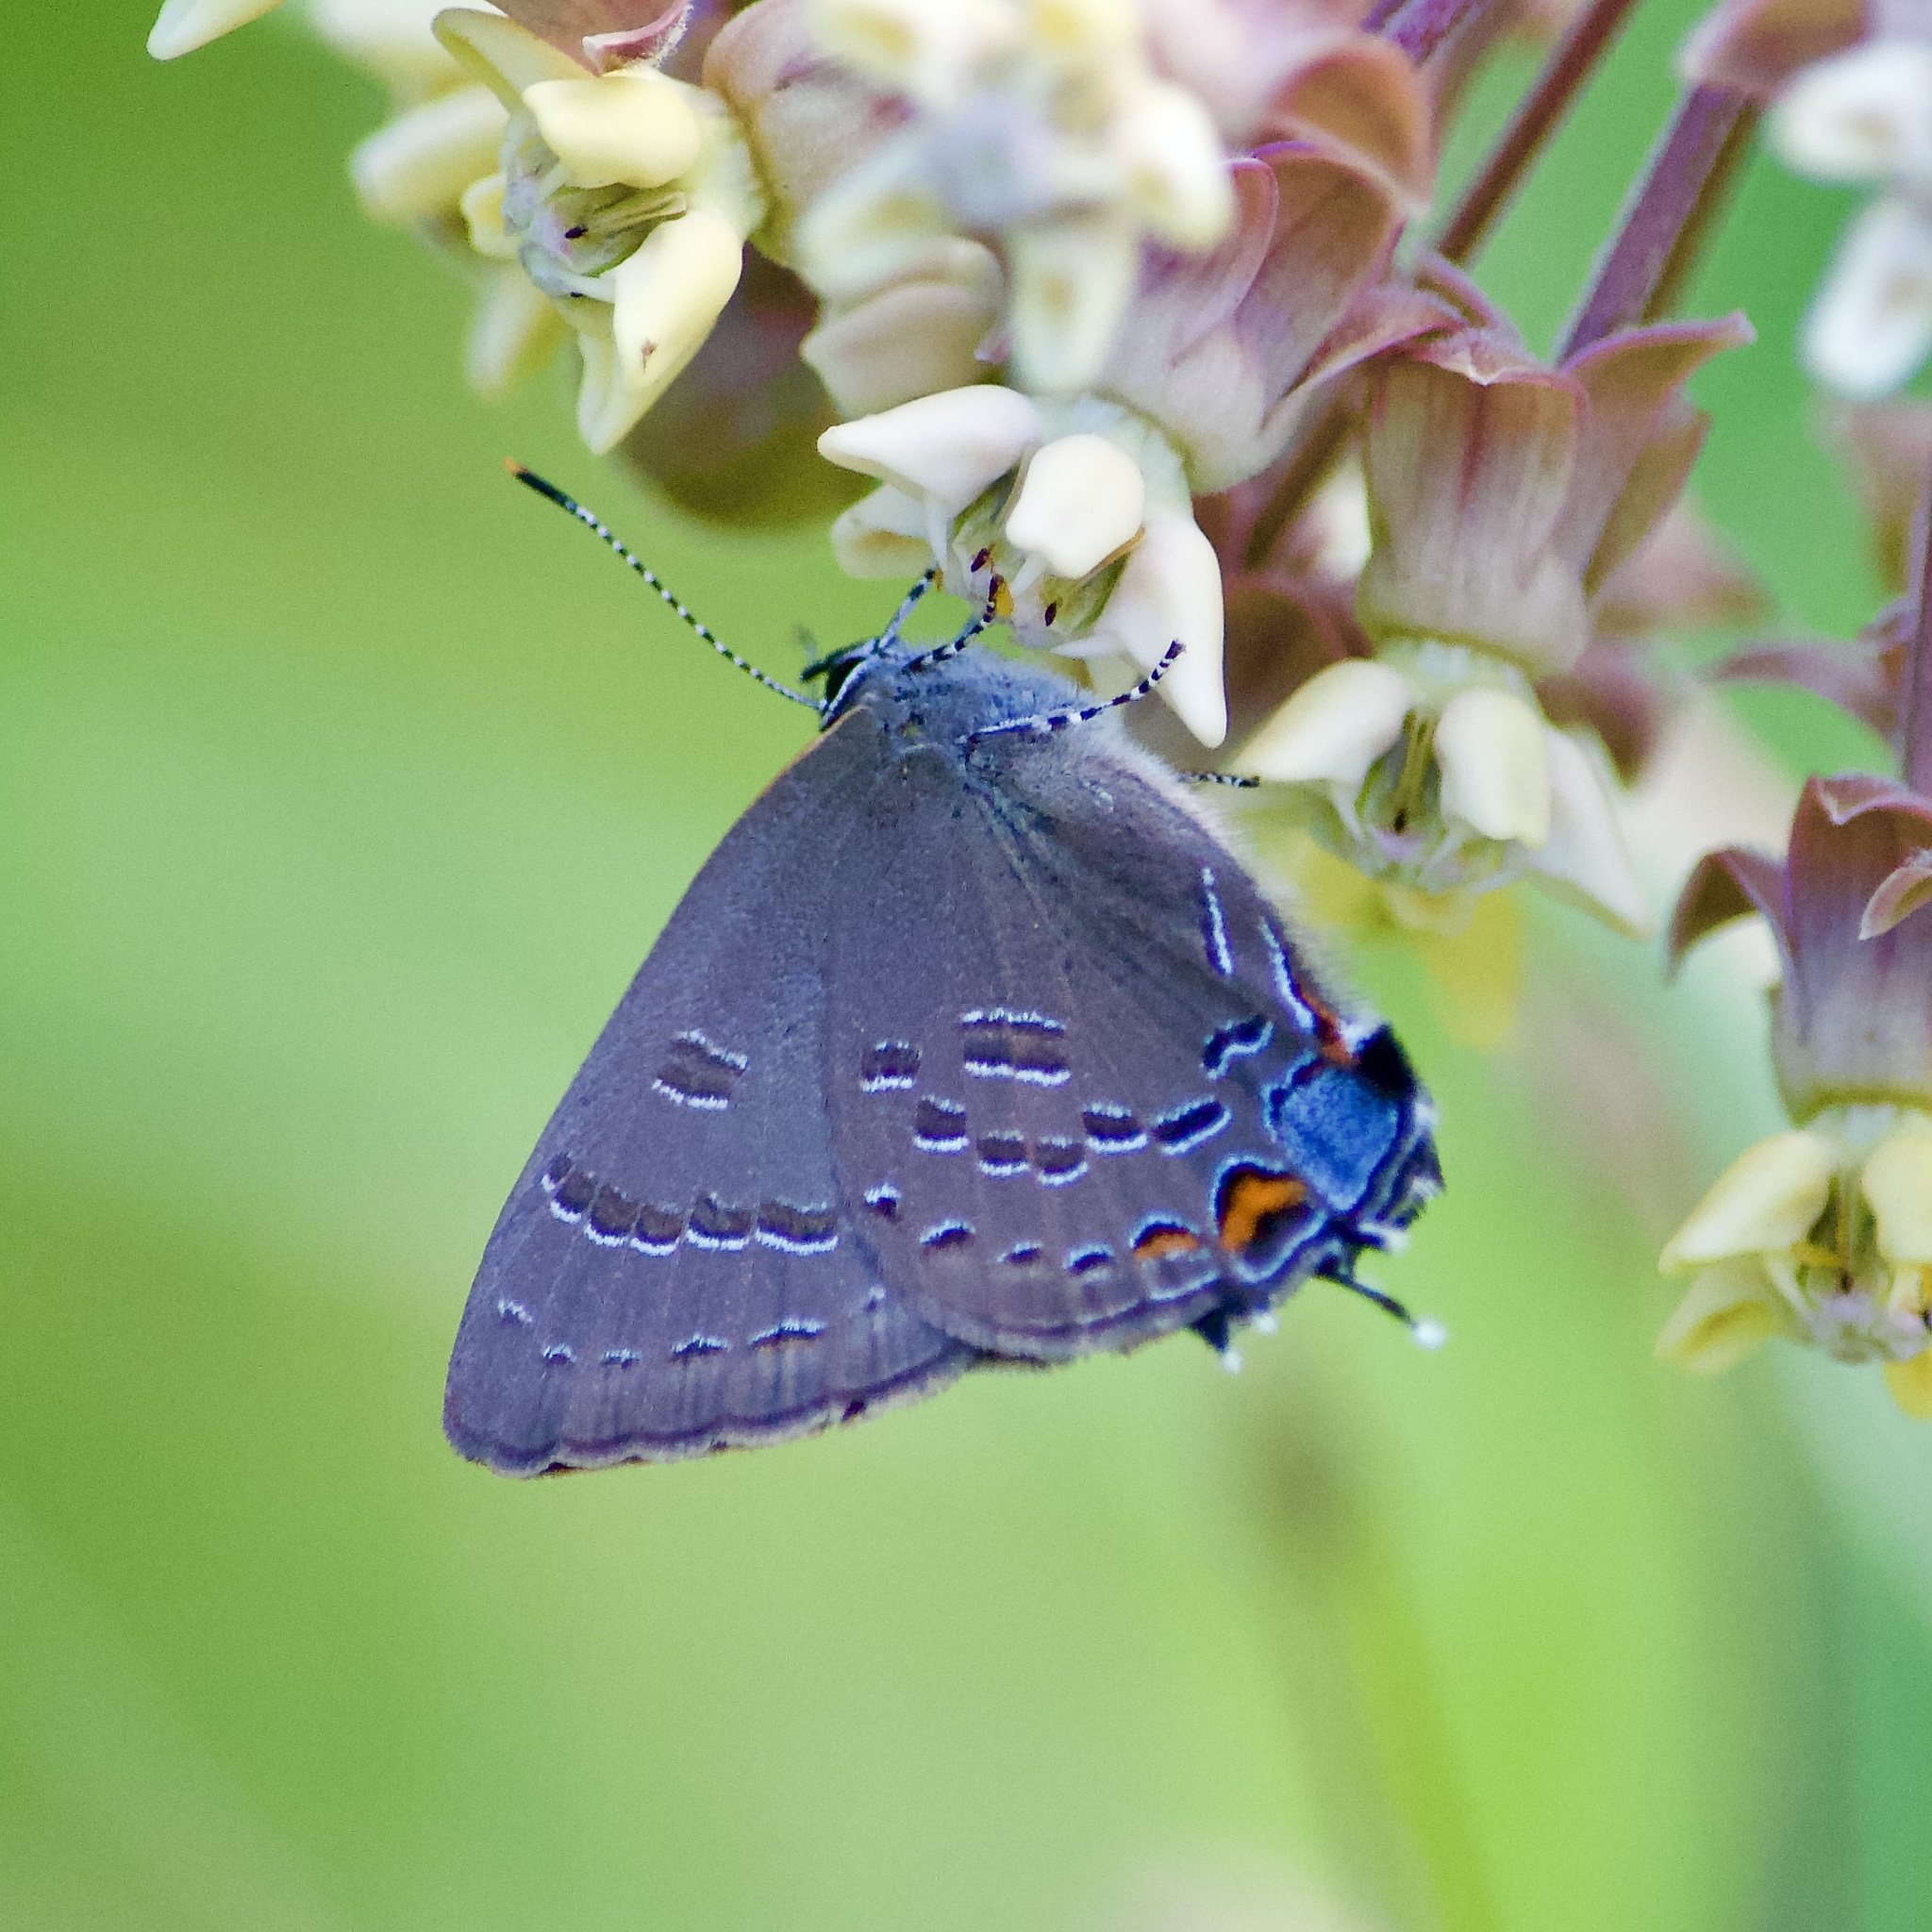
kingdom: Animalia
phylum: Arthropoda
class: Insecta
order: Lepidoptera
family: Lycaenidae
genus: Satyrium
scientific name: Satyrium calanus
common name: Banded hairstreak
